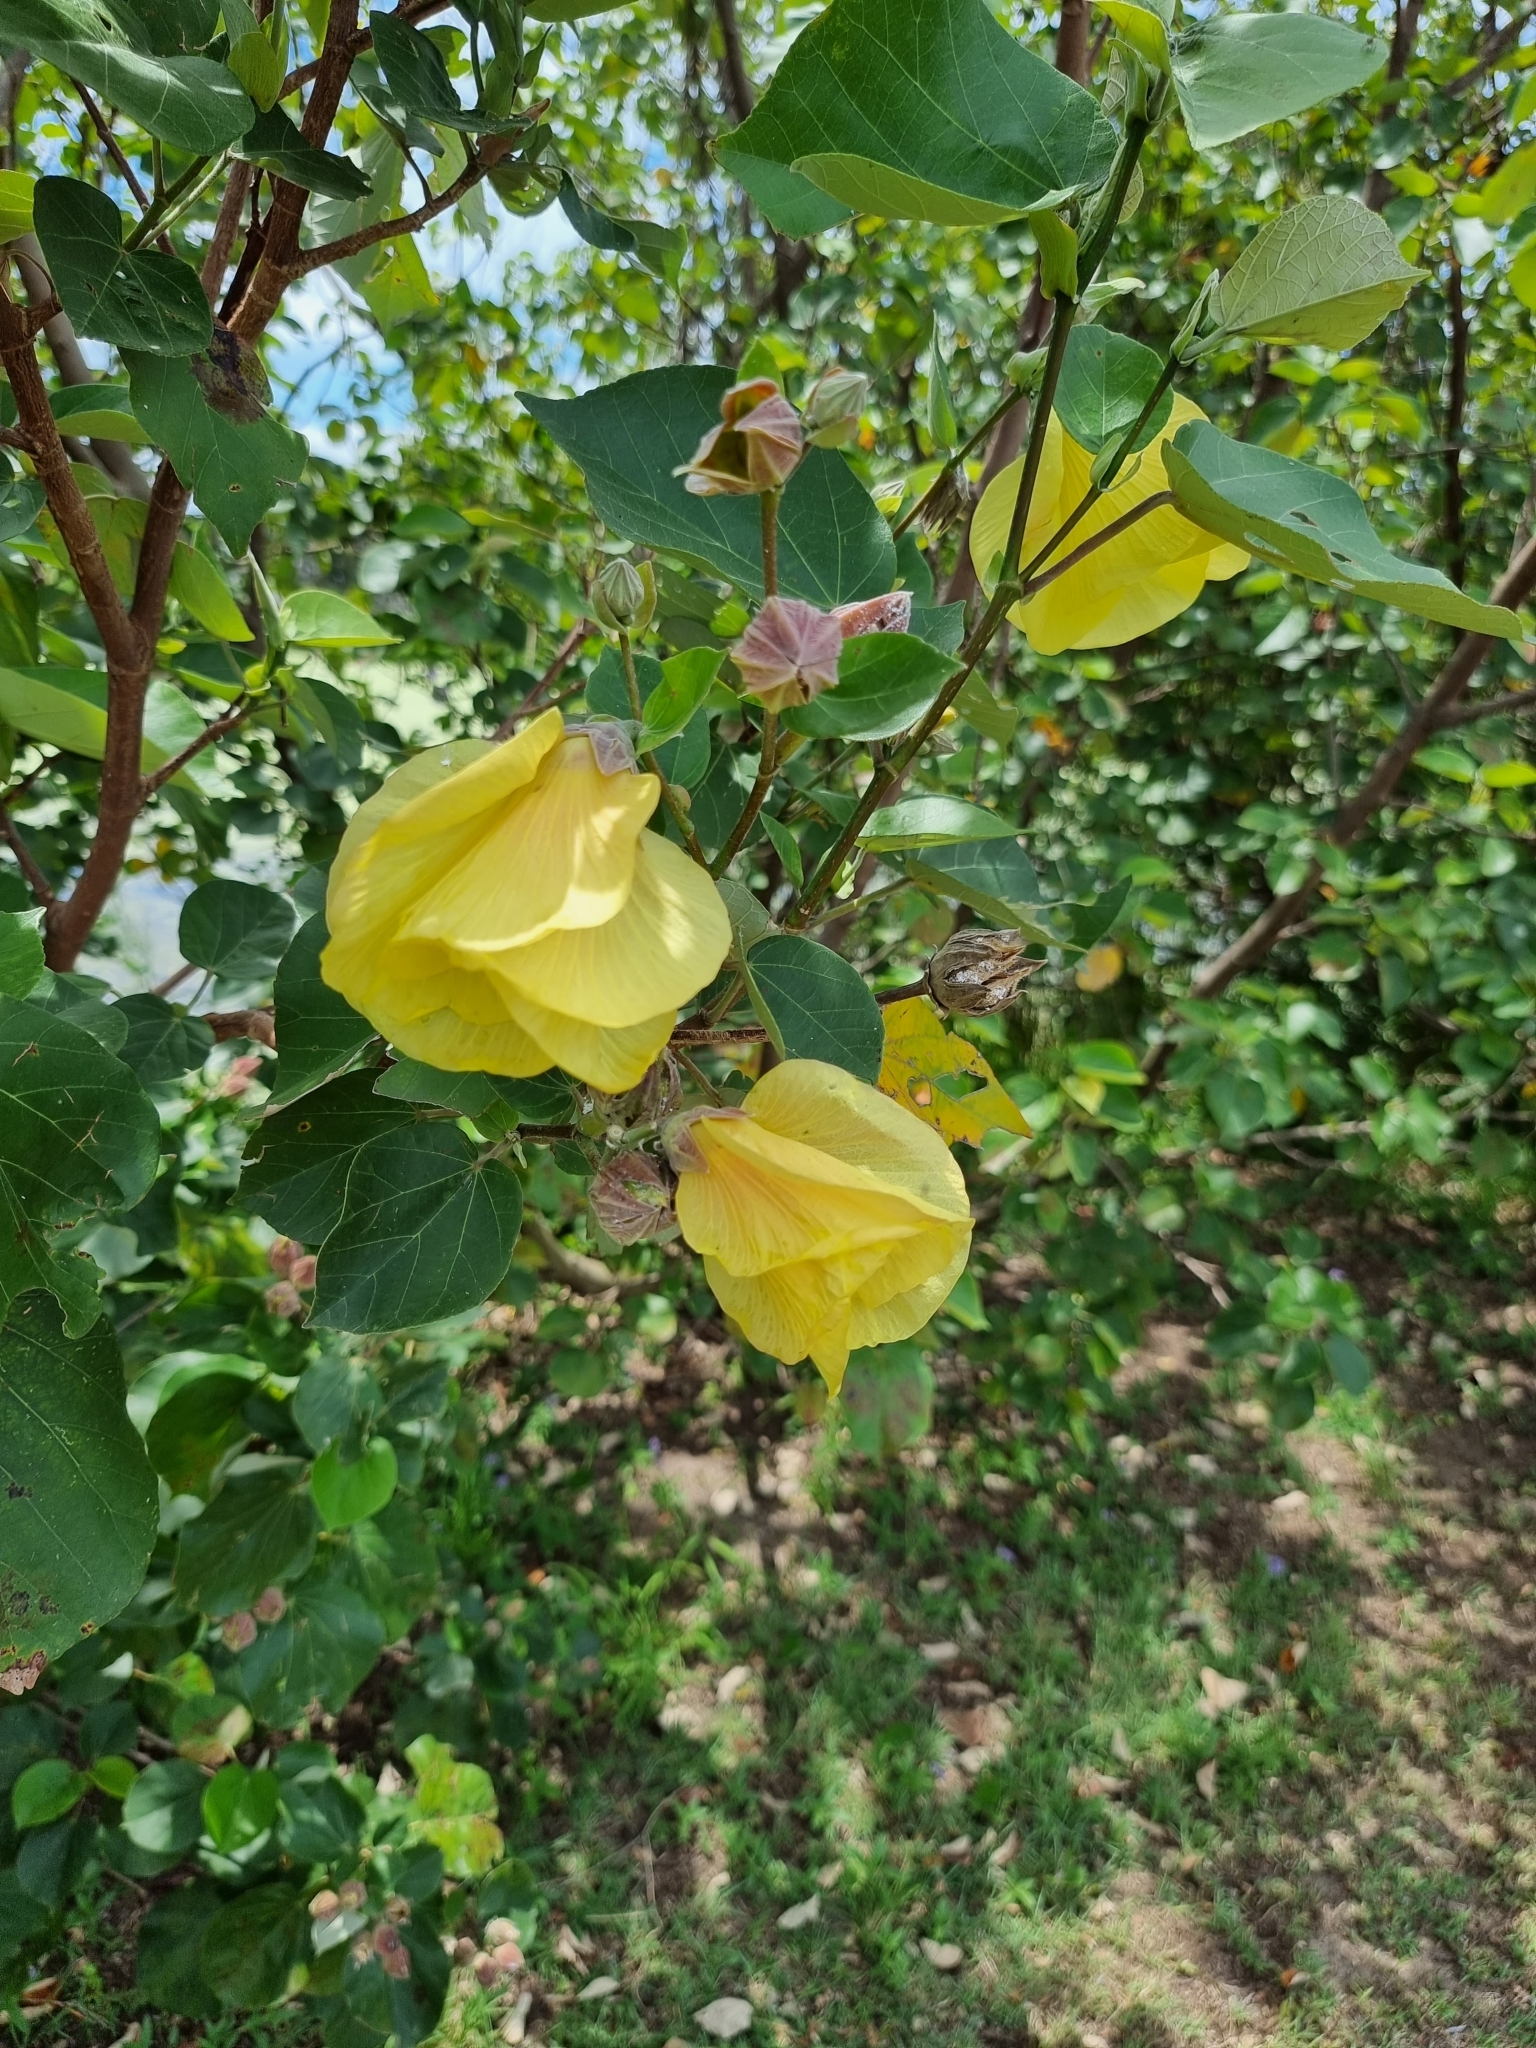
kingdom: Plantae
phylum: Tracheophyta
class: Magnoliopsida
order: Malvales
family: Malvaceae
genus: Talipariti
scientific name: Talipariti tiliaceum
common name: Sea hibiscus
